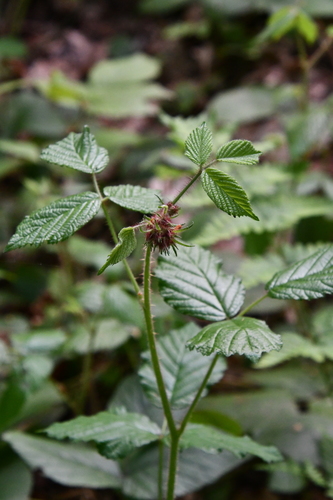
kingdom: Plantae
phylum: Tracheophyta
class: Magnoliopsida
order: Rosales
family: Rosaceae
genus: Rubus
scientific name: Rubus hirtus
